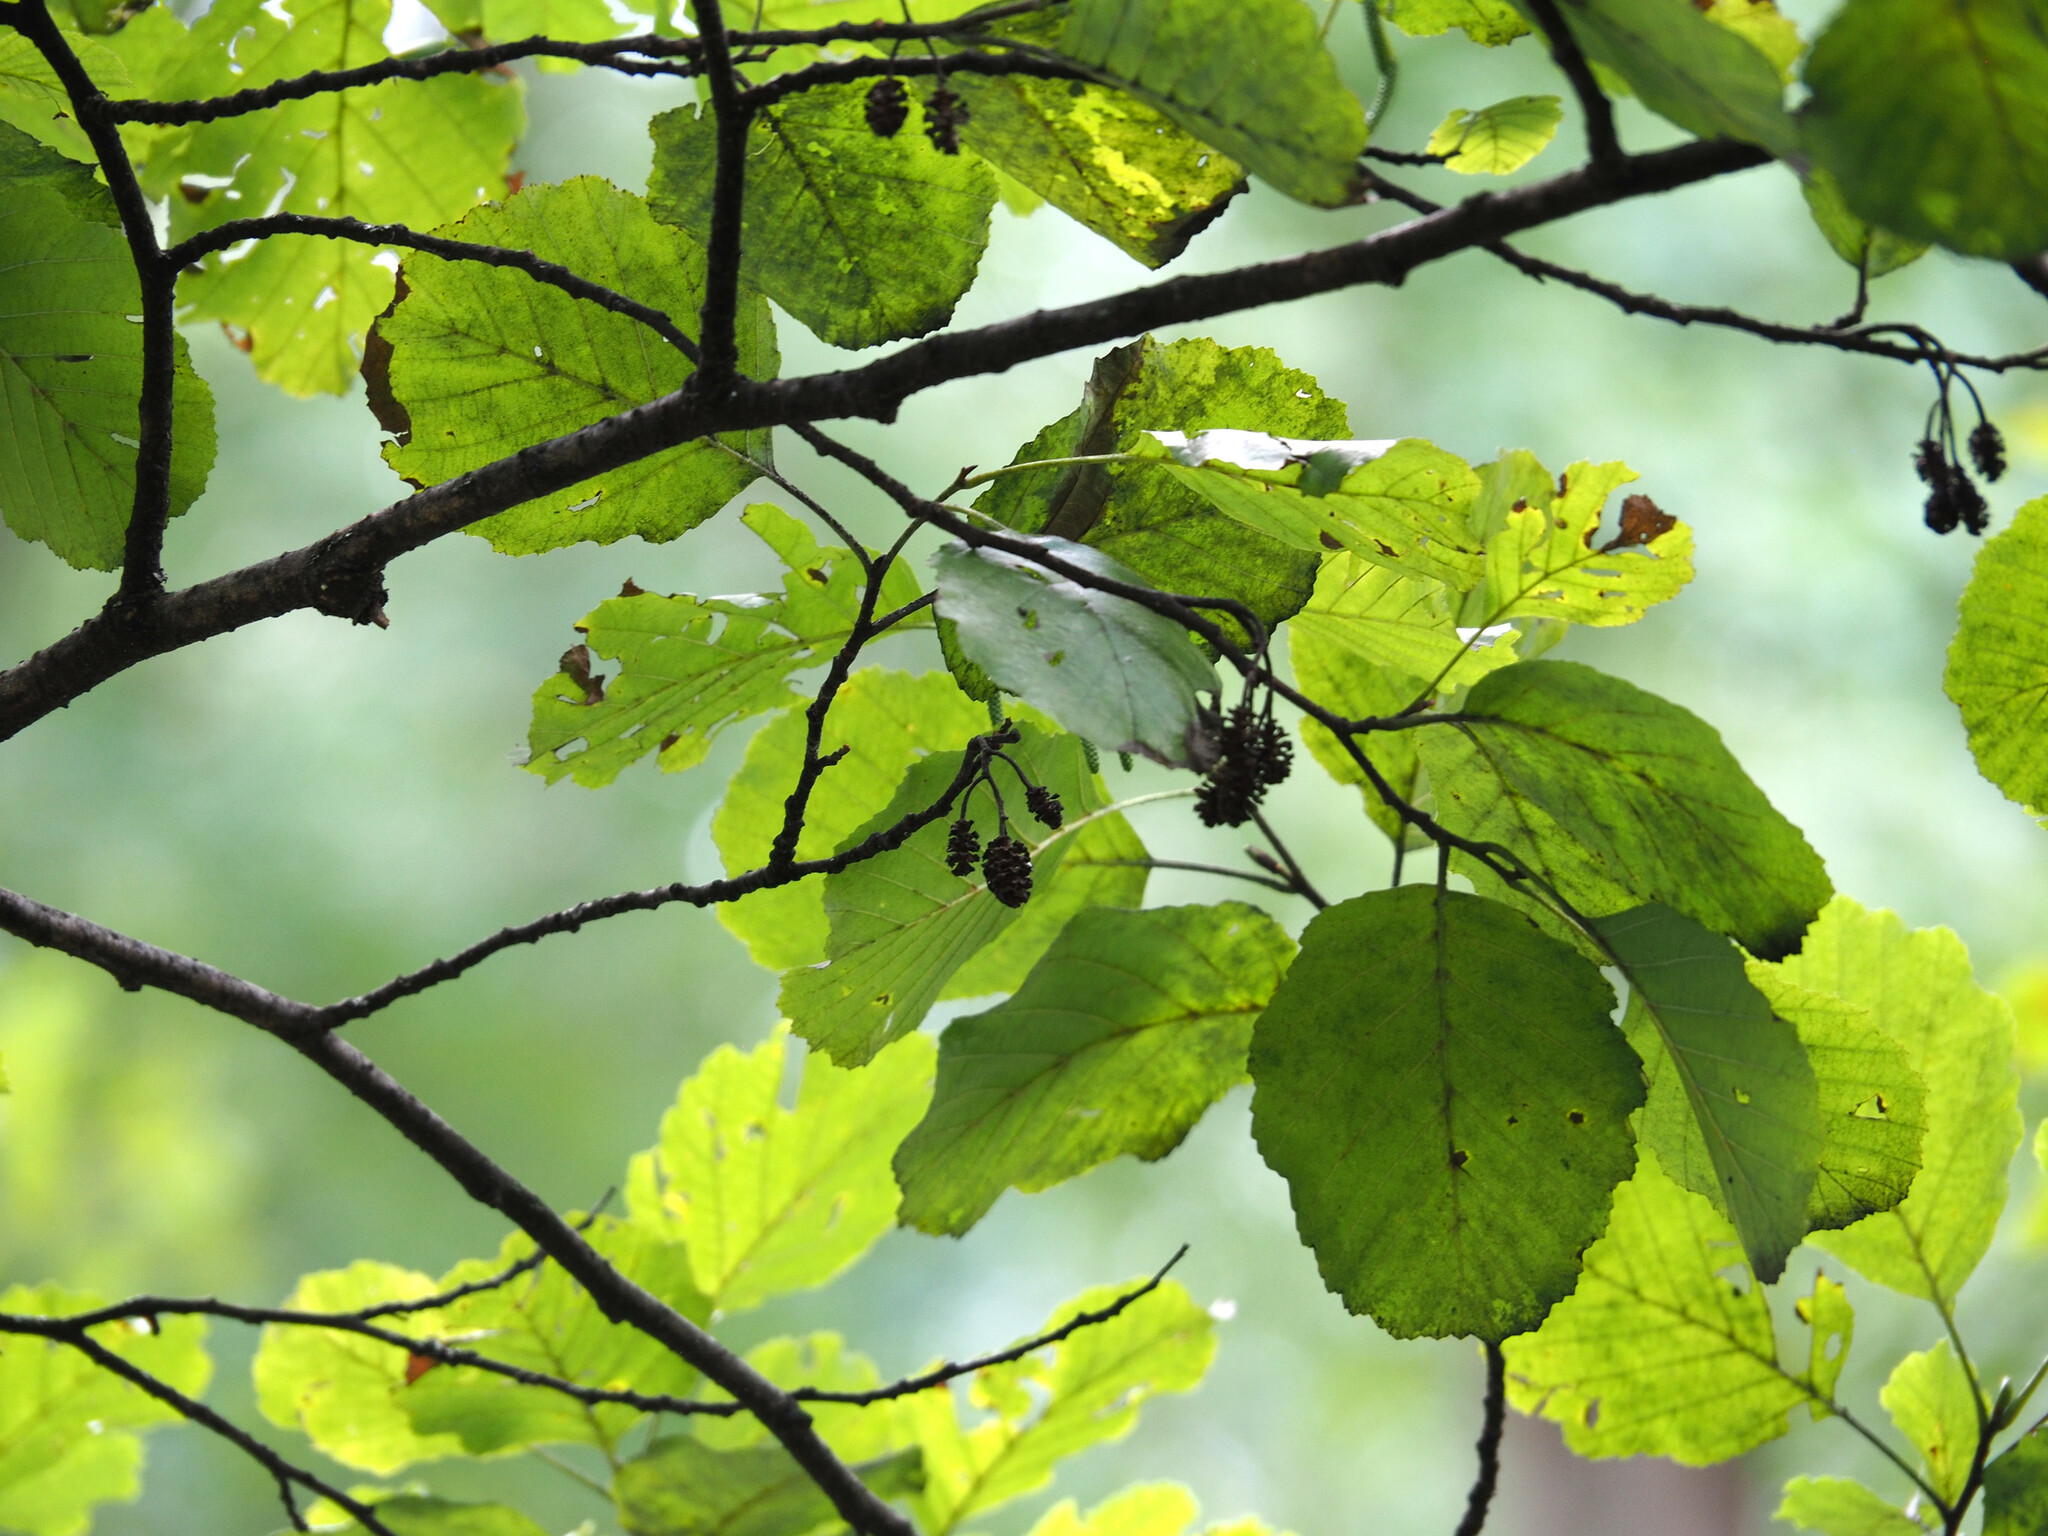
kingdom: Plantae
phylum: Tracheophyta
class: Magnoliopsida
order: Fagales
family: Betulaceae
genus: Alnus
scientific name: Alnus glutinosa
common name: Black alder
